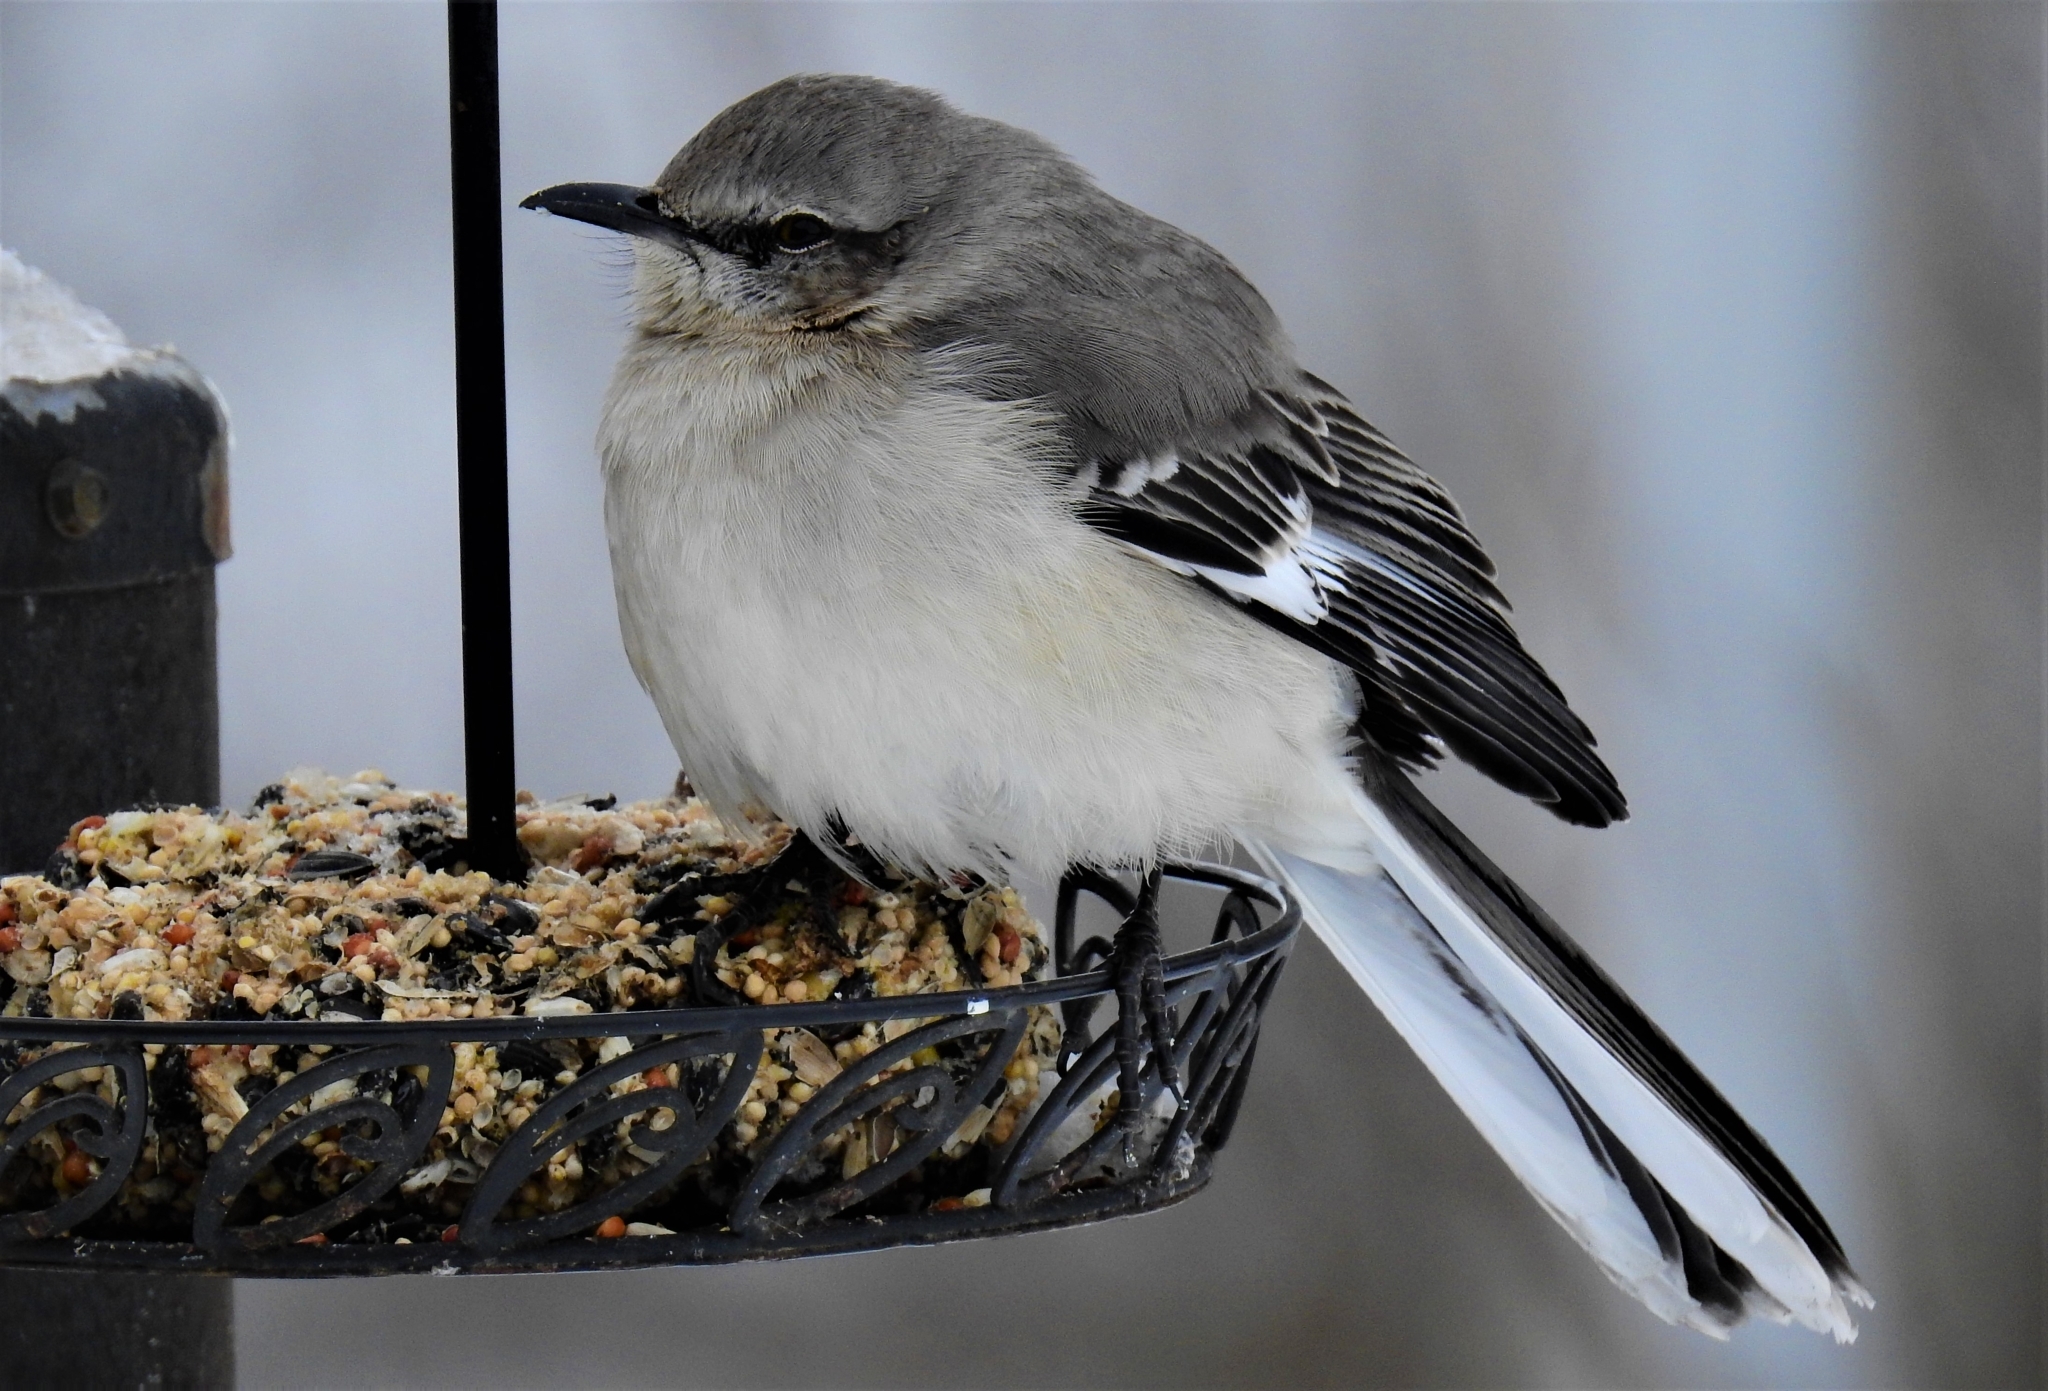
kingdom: Animalia
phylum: Chordata
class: Aves
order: Passeriformes
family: Mimidae
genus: Mimus
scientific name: Mimus polyglottos
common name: Northern mockingbird
